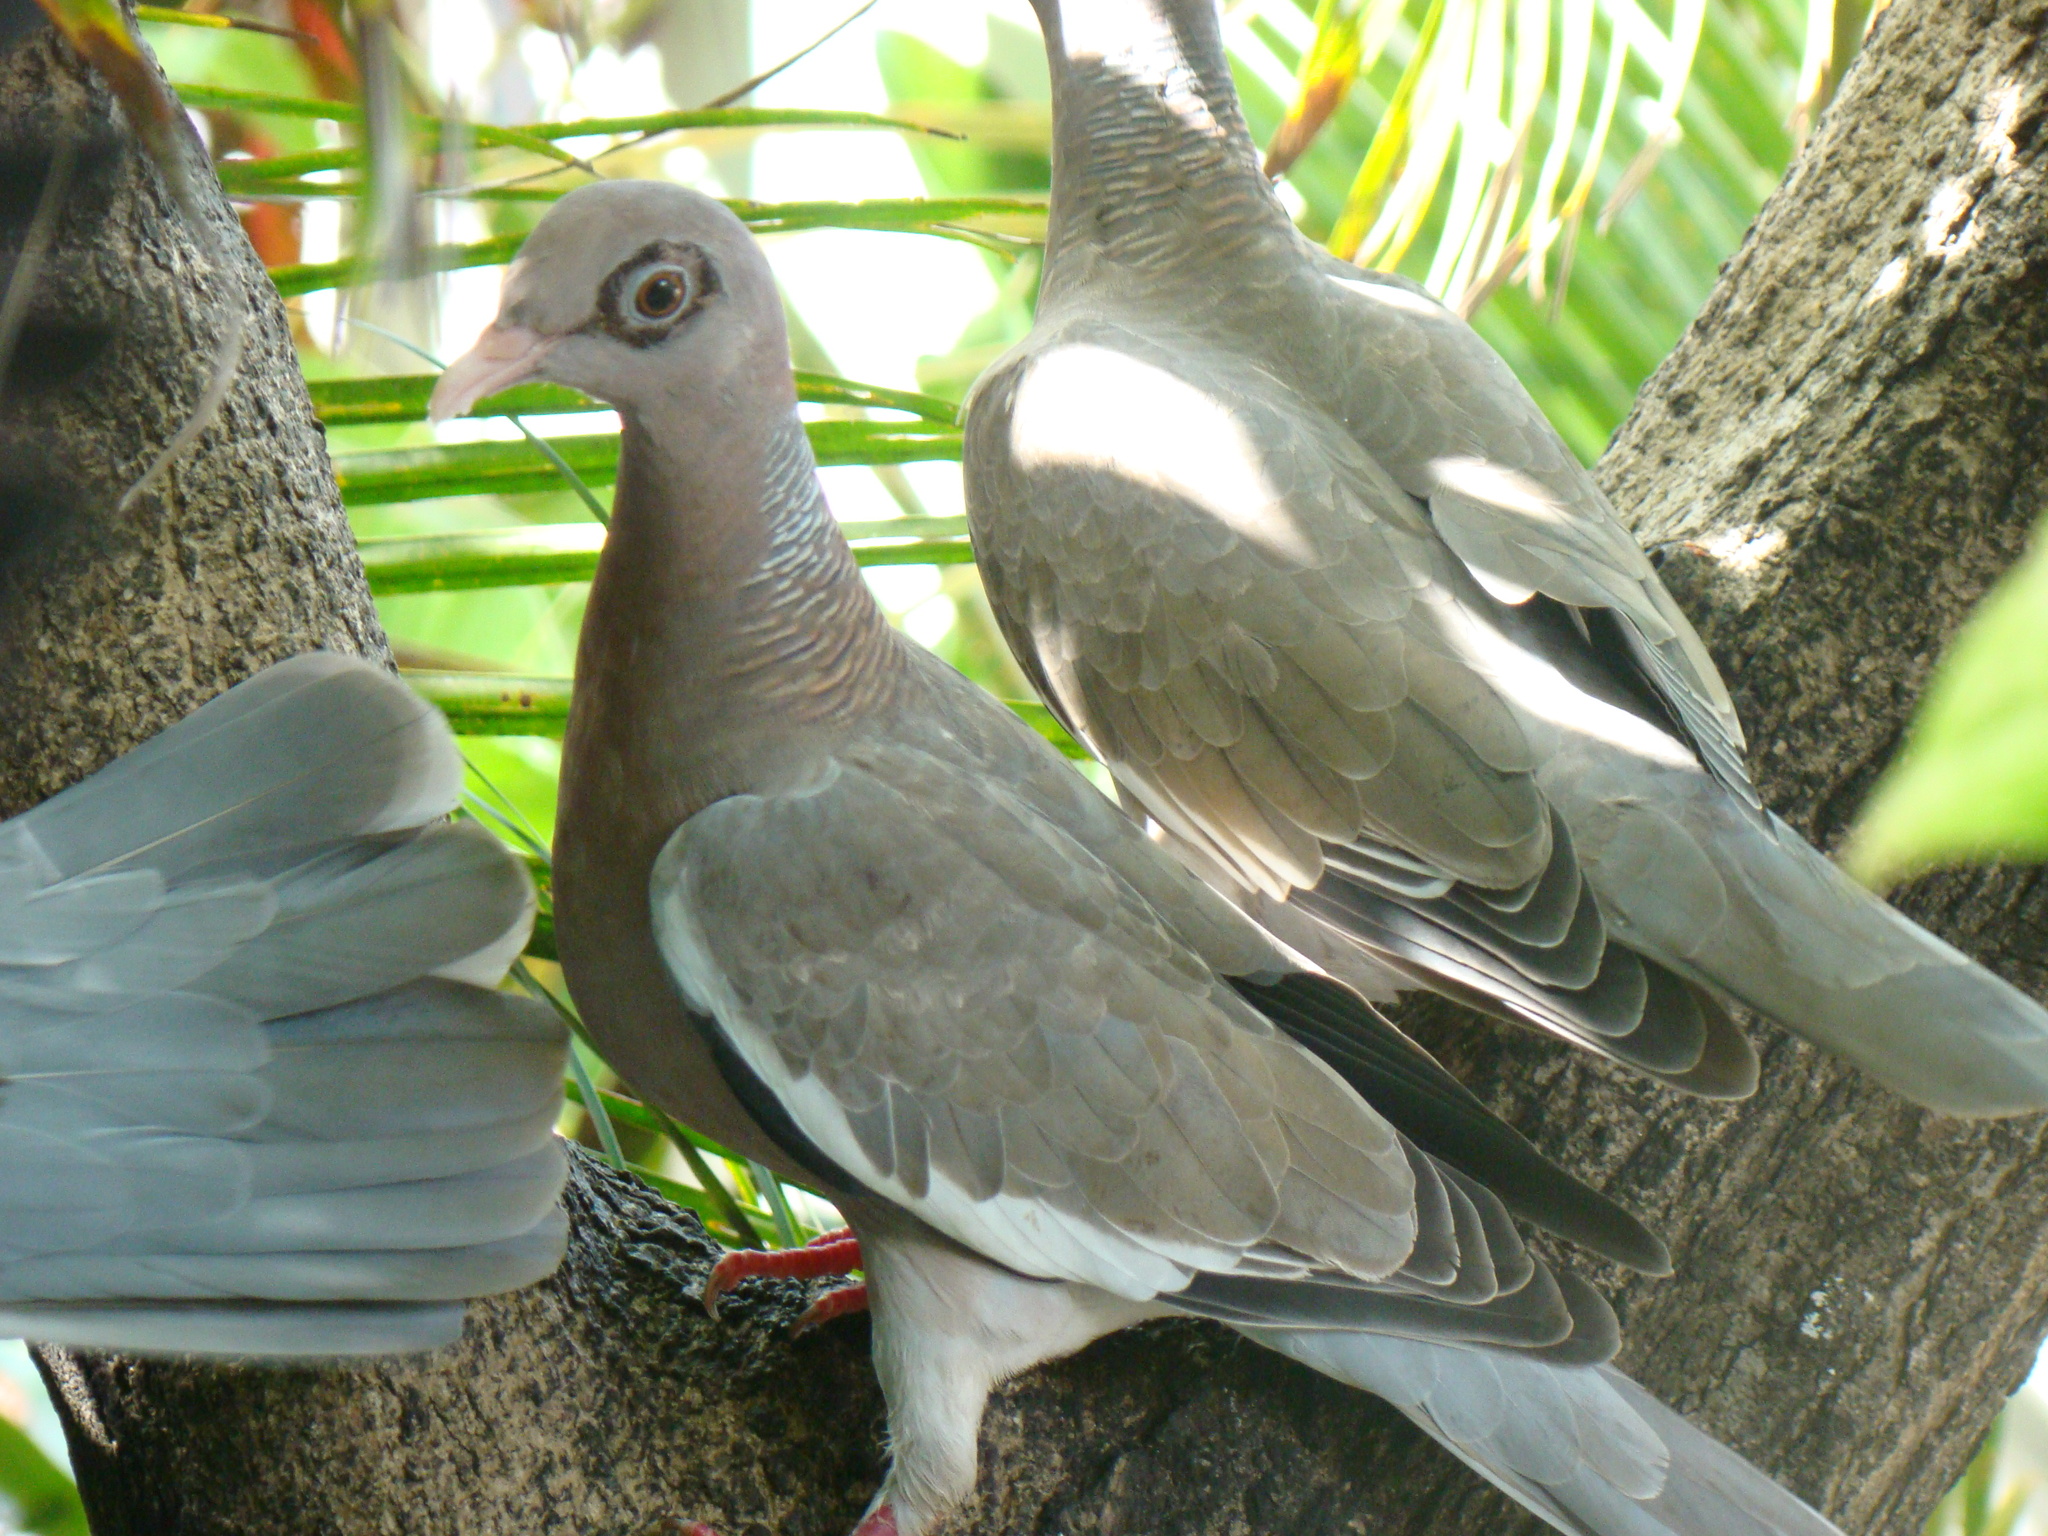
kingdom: Animalia
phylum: Chordata
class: Aves
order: Columbiformes
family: Columbidae
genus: Patagioenas
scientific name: Patagioenas corensis
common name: Bare-eyed pigeon
